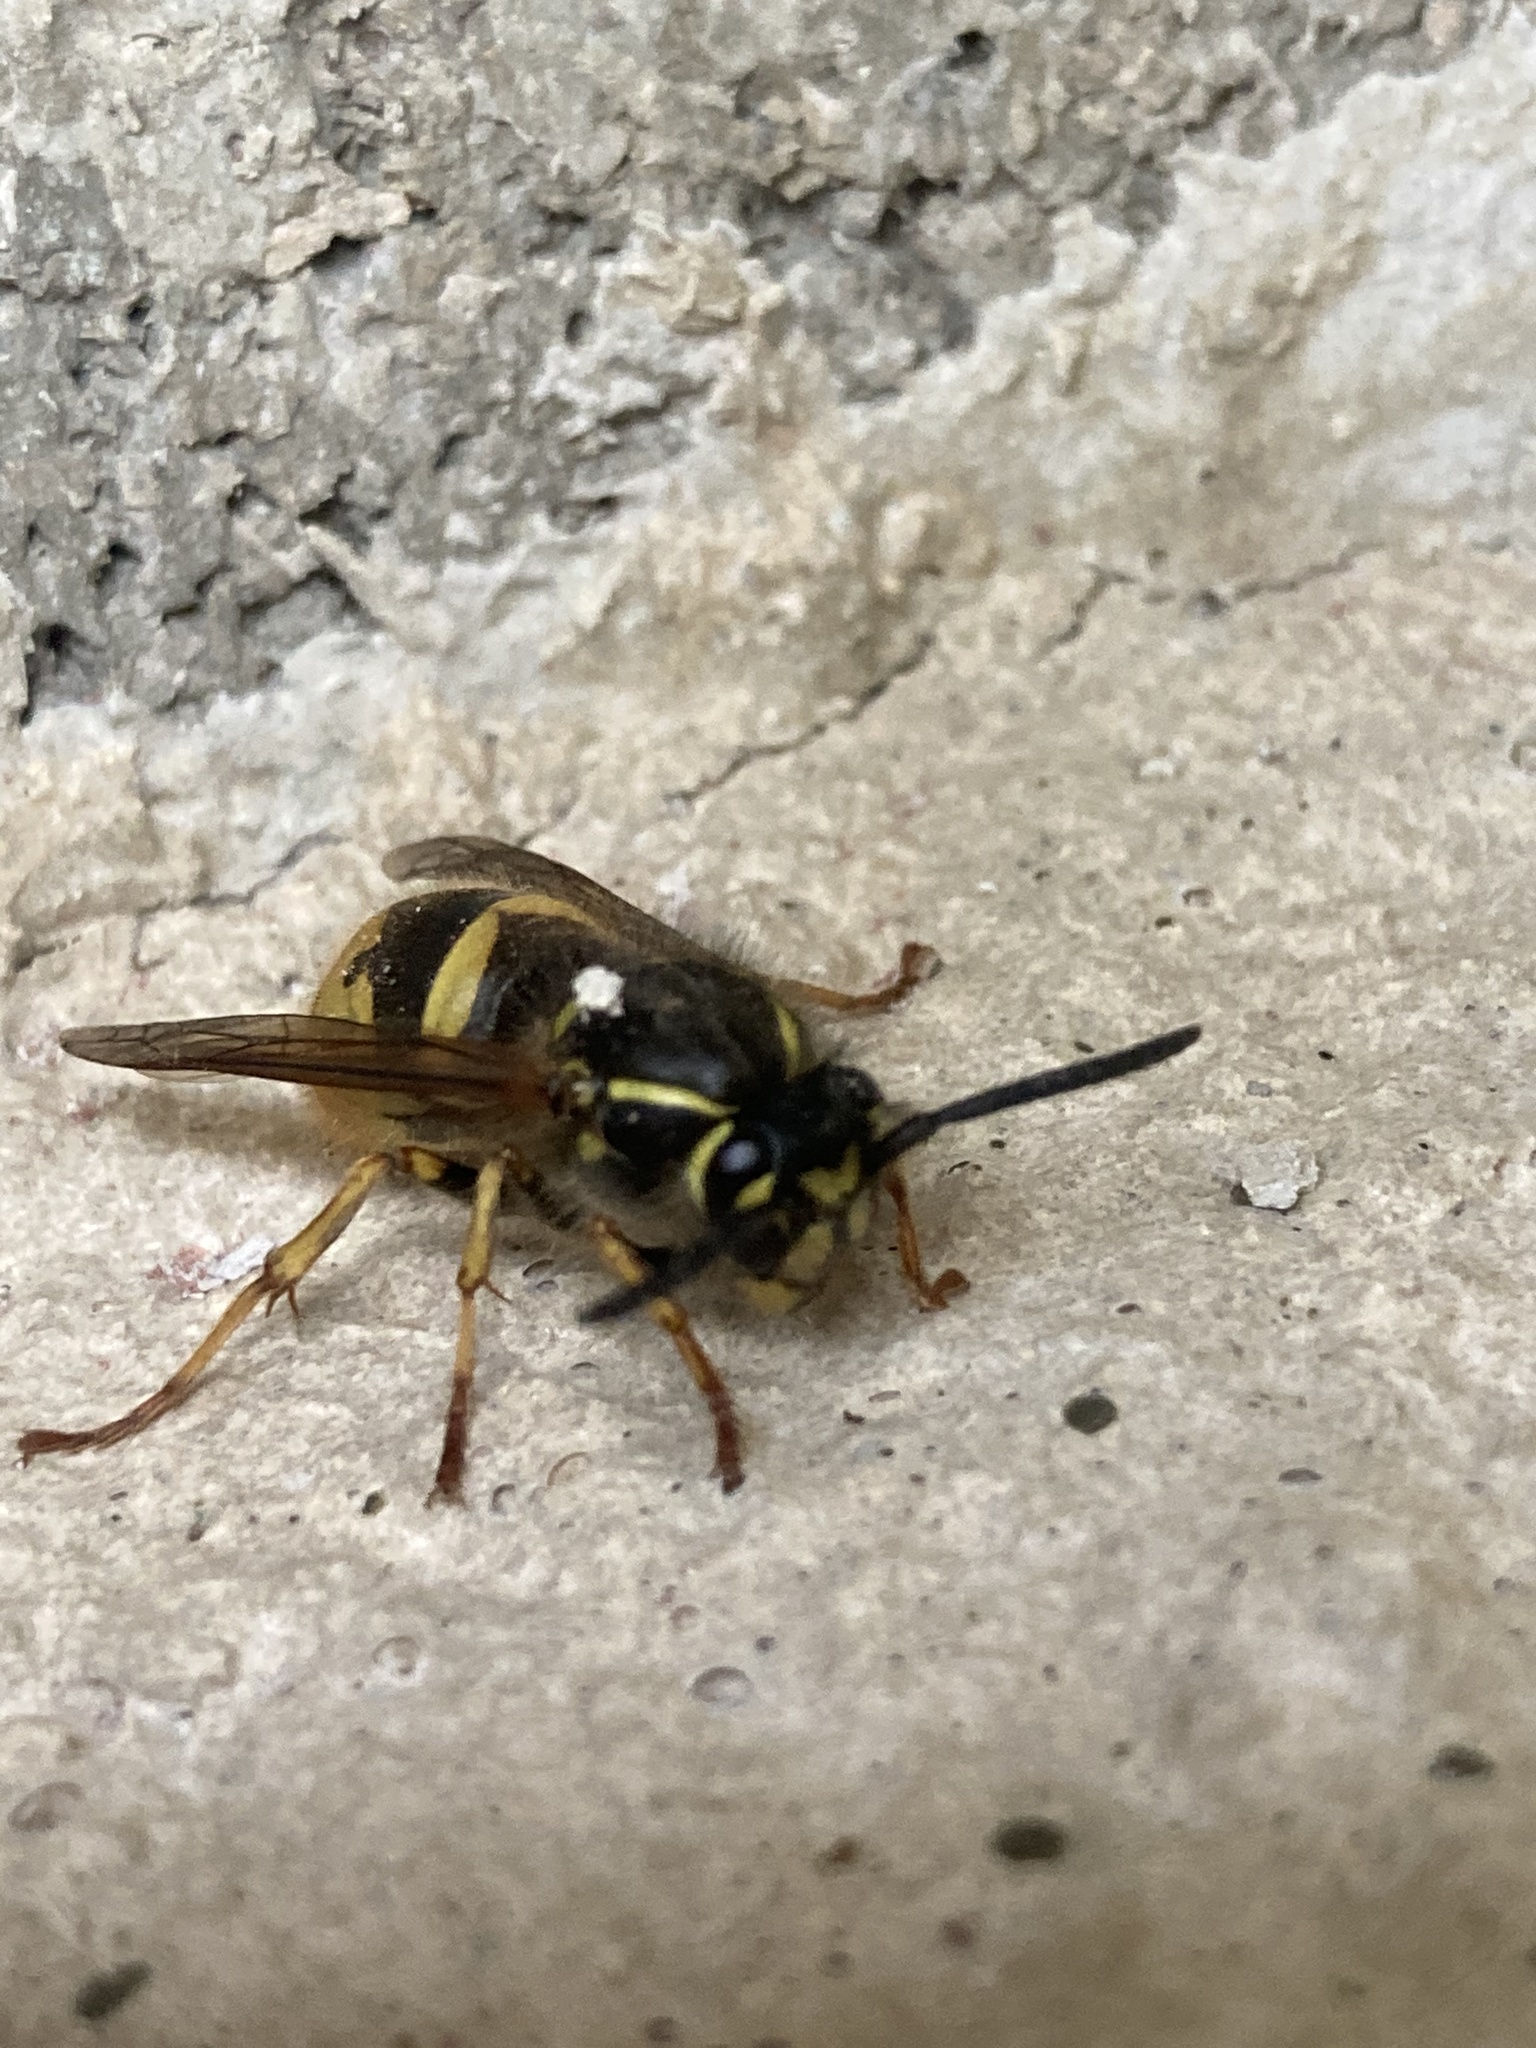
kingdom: Animalia
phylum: Arthropoda
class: Insecta
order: Hymenoptera
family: Vespidae
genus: Vespula
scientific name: Vespula vulgaris
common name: Common wasp
